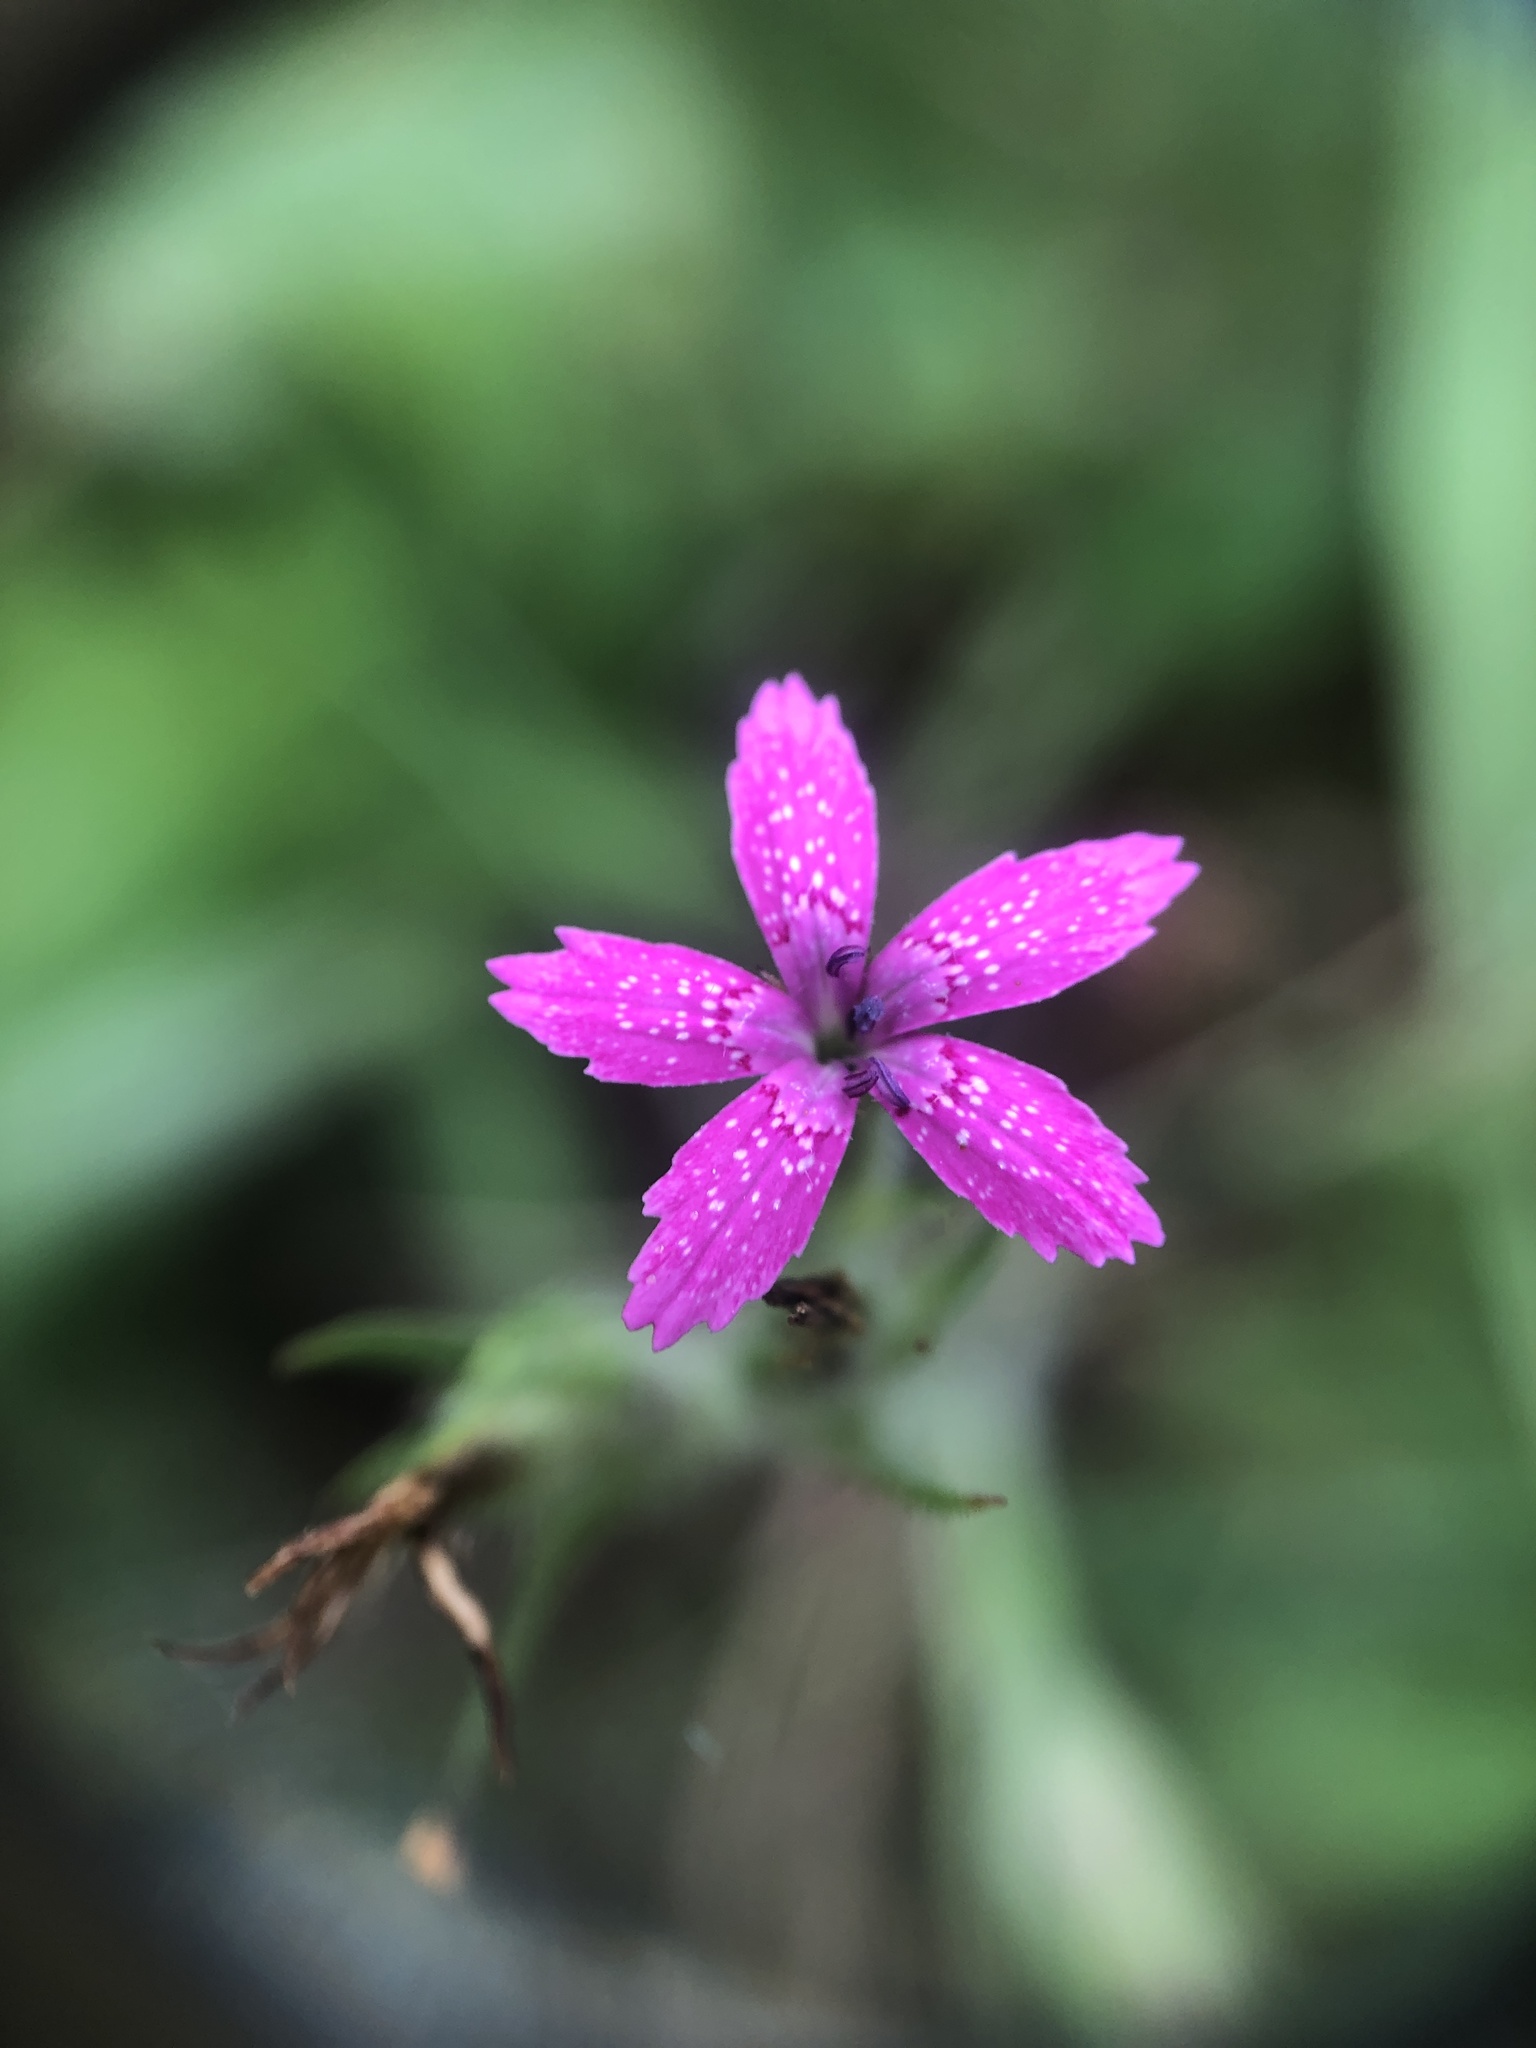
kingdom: Plantae
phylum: Tracheophyta
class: Magnoliopsida
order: Caryophyllales
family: Caryophyllaceae
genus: Dianthus
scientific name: Dianthus armeria
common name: Deptford pink
